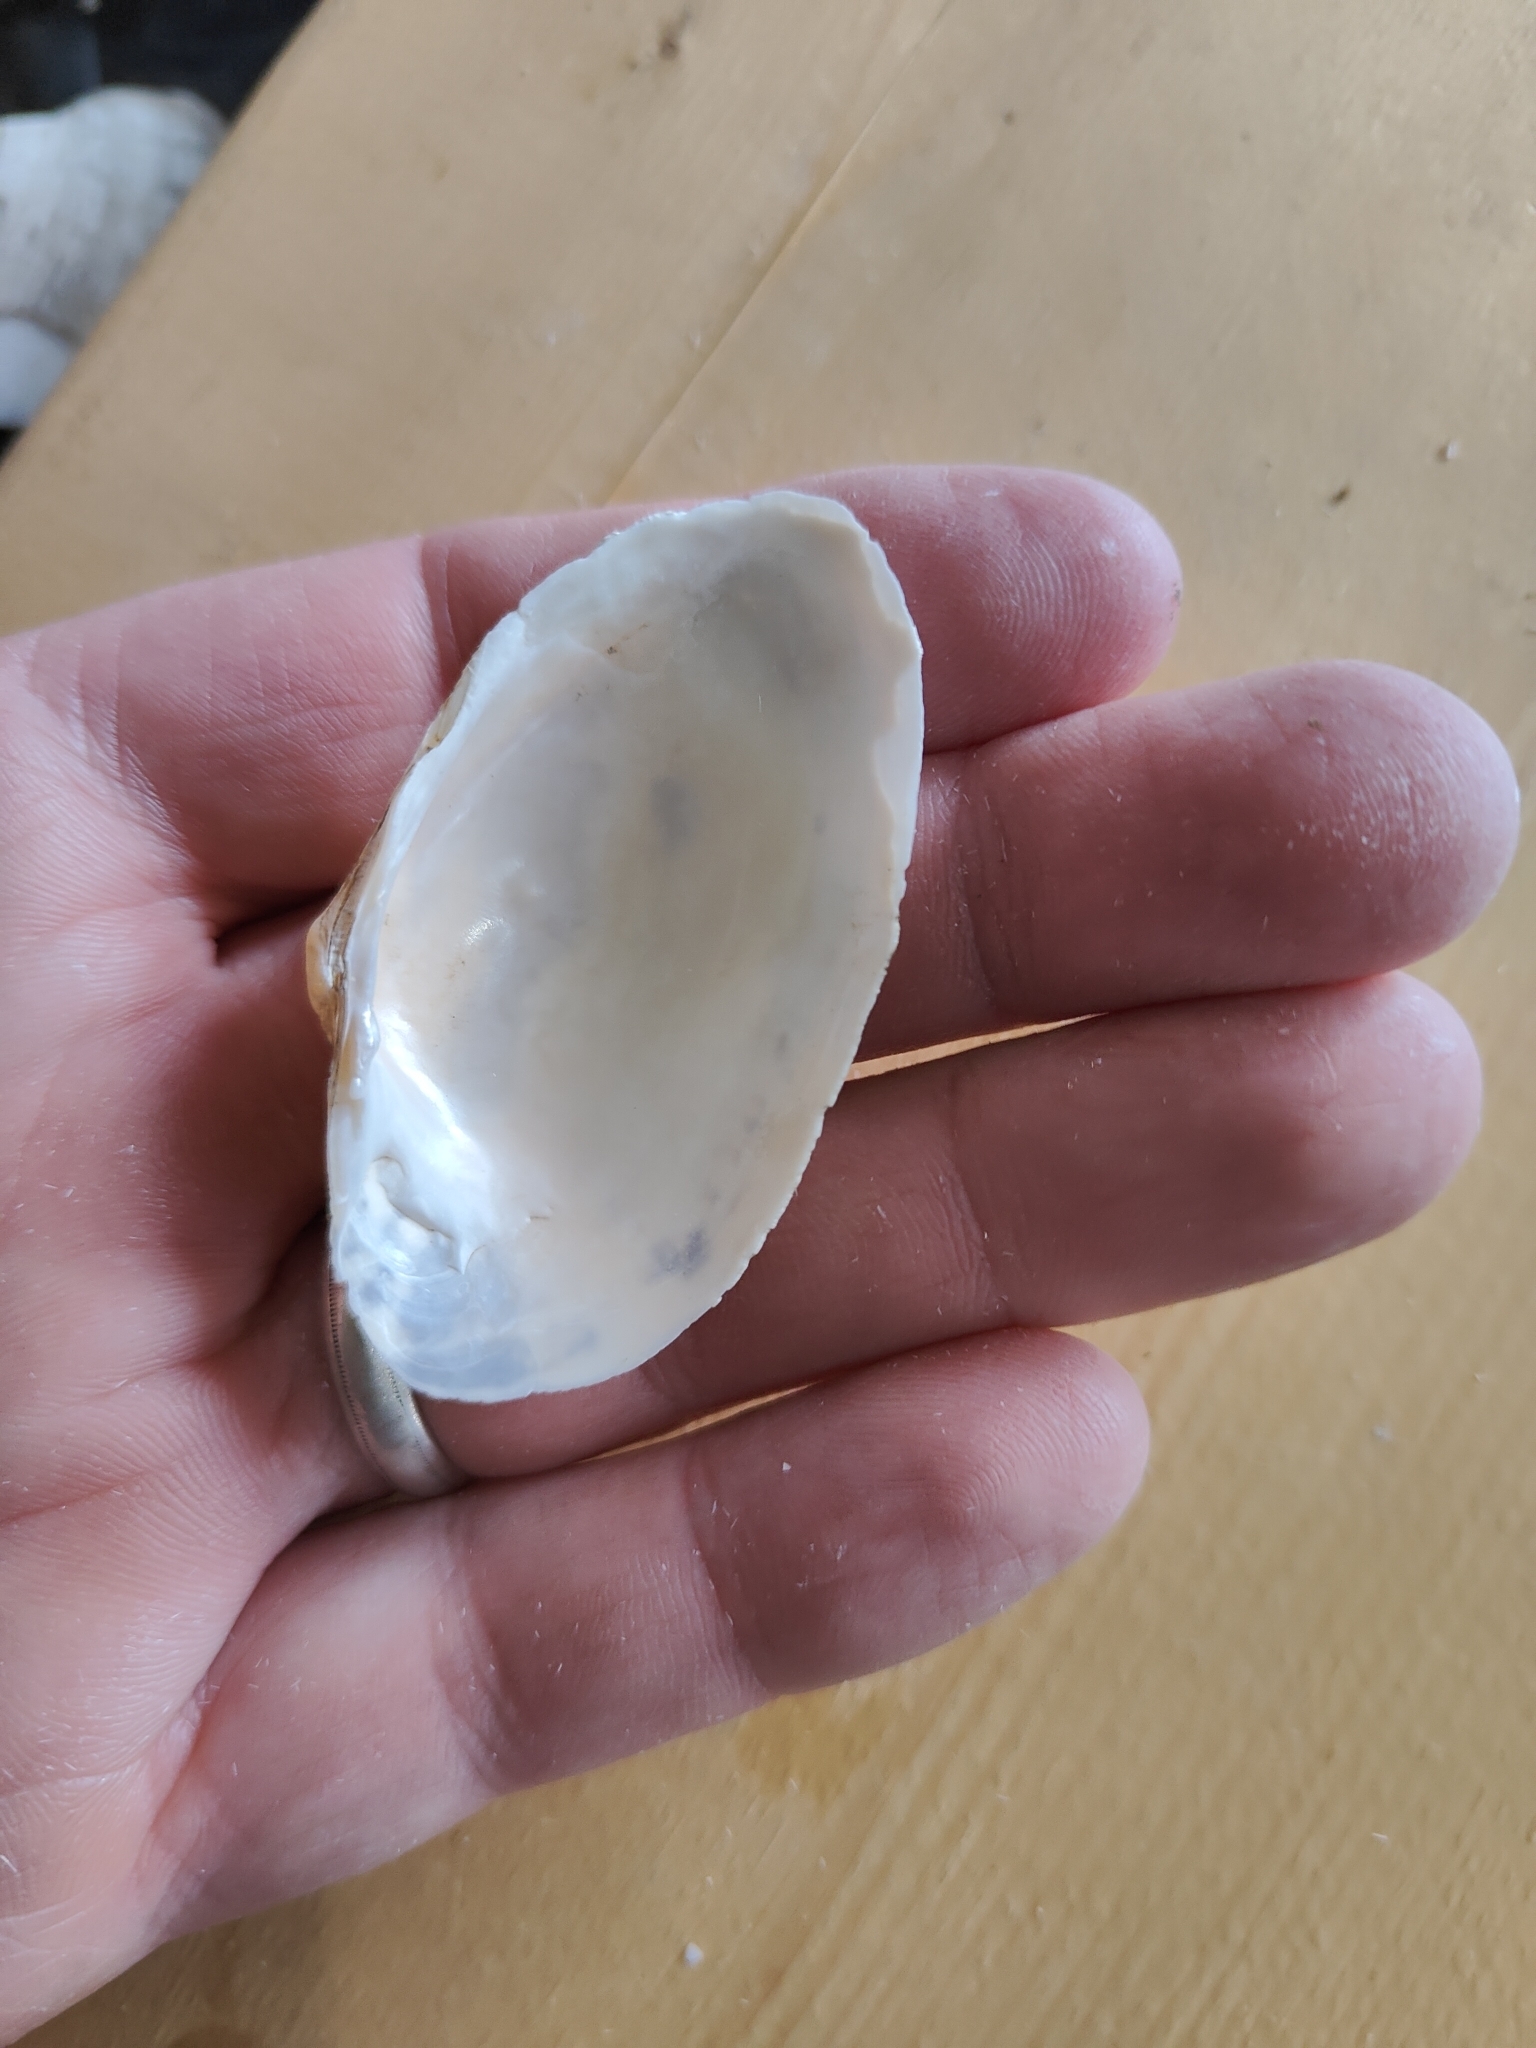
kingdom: Animalia
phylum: Mollusca
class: Bivalvia
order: Unionida
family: Unionidae
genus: Alasmidonta
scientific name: Alasmidonta marginata
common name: Elktoe
